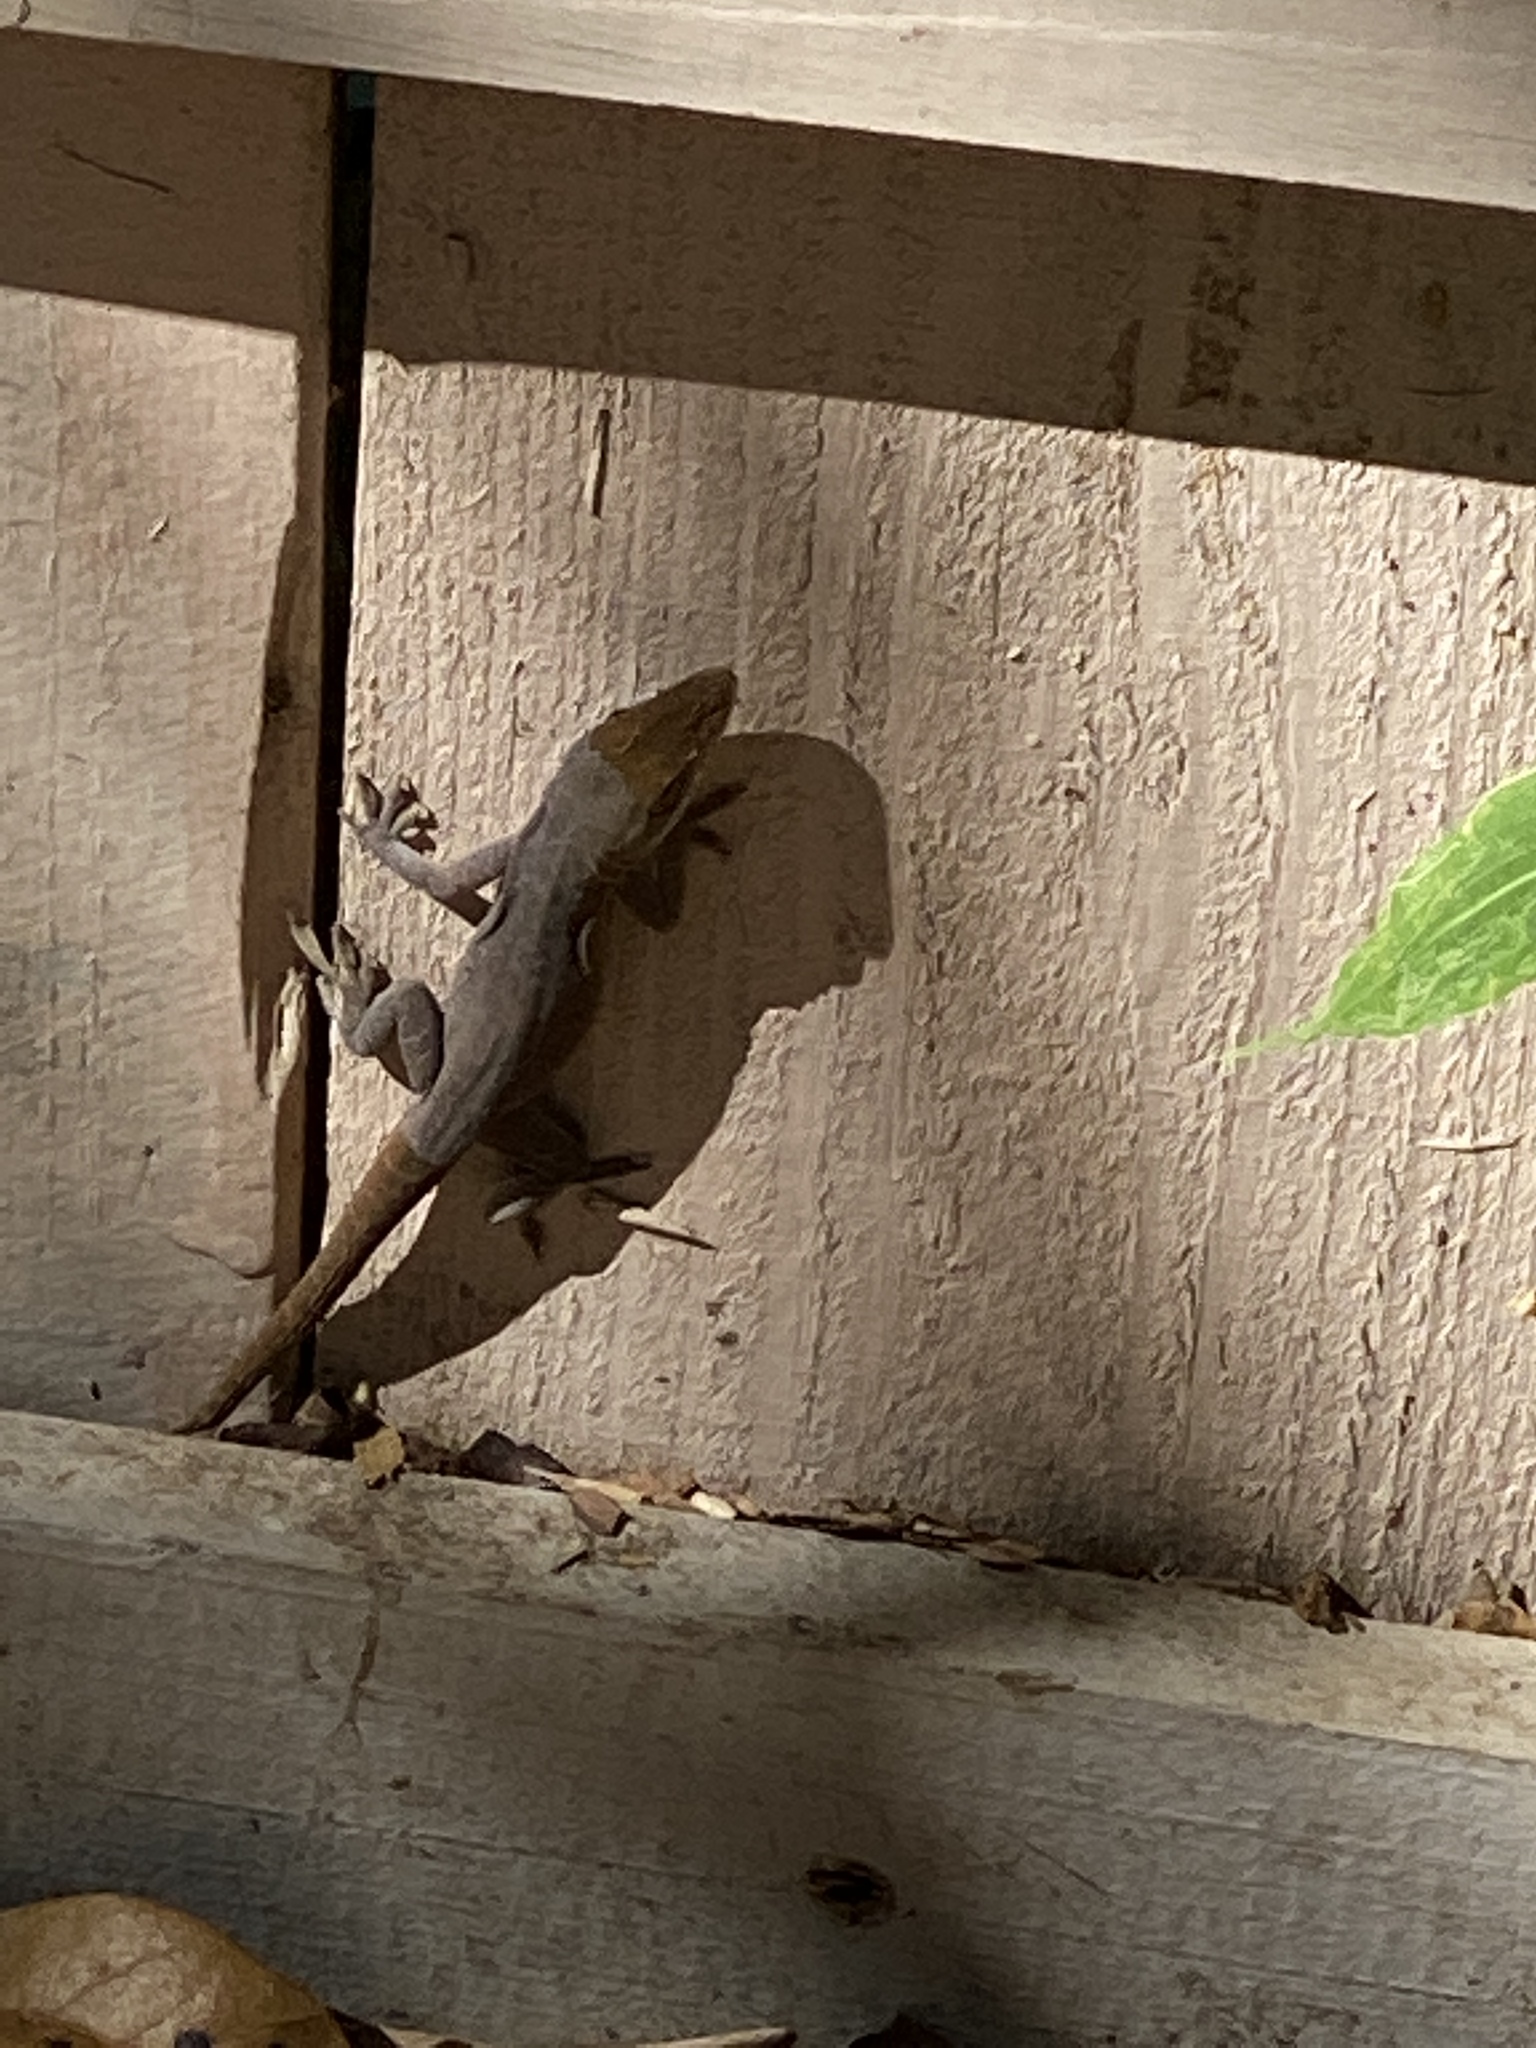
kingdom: Animalia
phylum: Chordata
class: Squamata
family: Dactyloidae
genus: Anolis
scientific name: Anolis carolinensis
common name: Green anole
